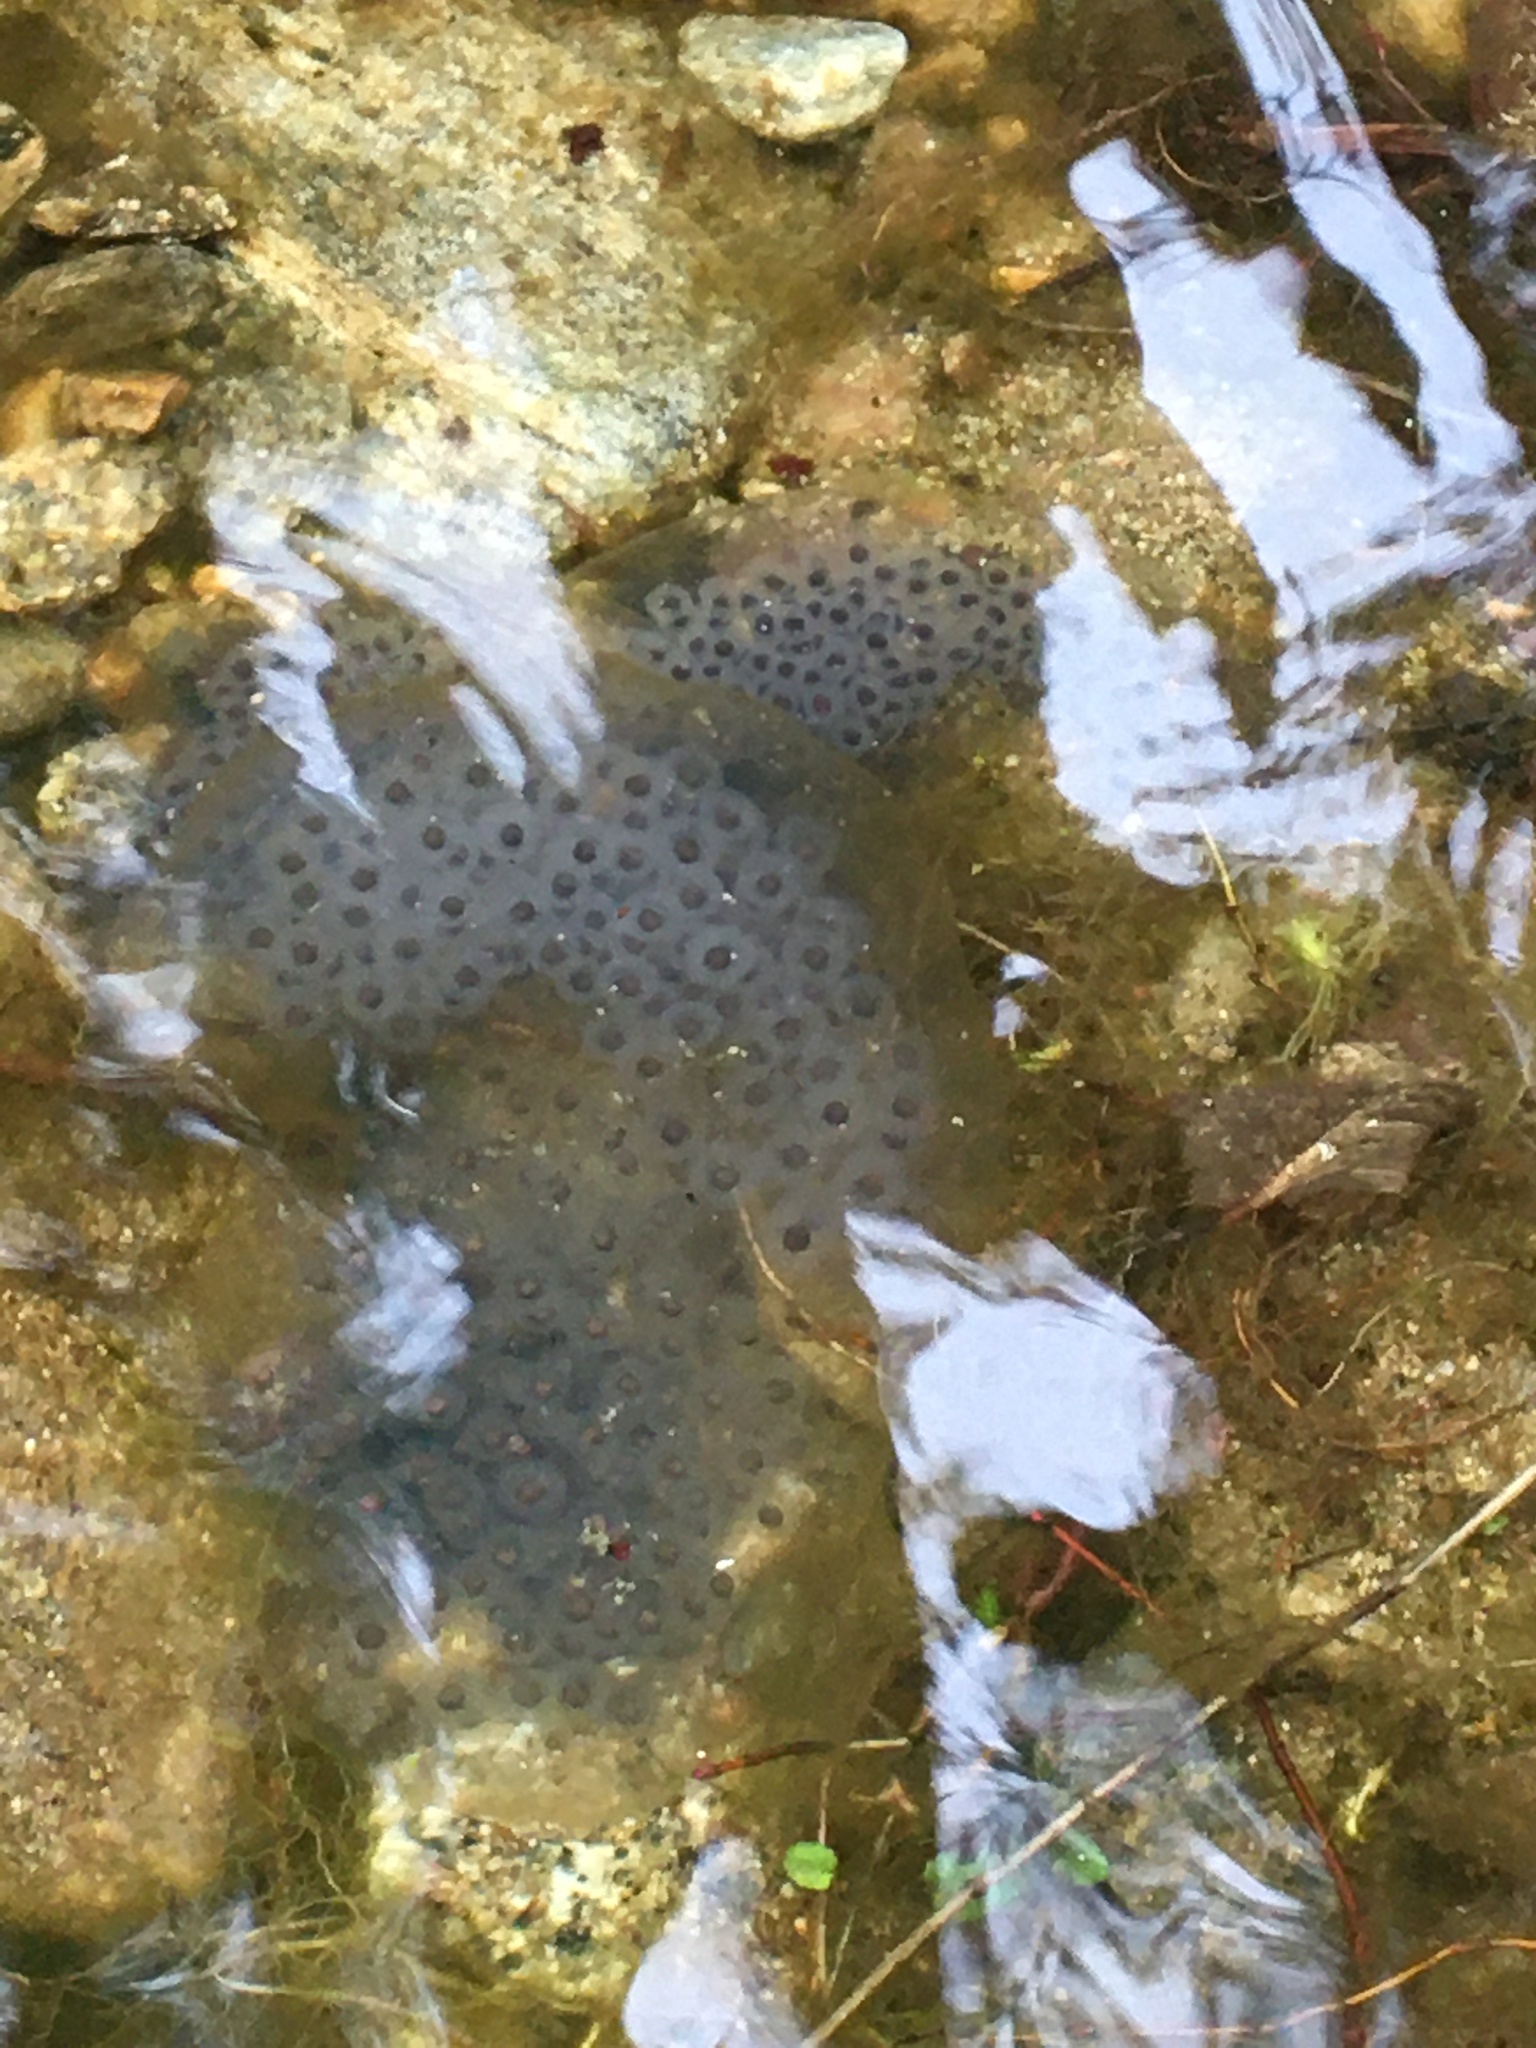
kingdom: Animalia
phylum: Chordata
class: Amphibia
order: Caudata
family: Ambystomatidae
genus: Ambystoma
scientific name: Ambystoma maculatum
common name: Spotted salamander
